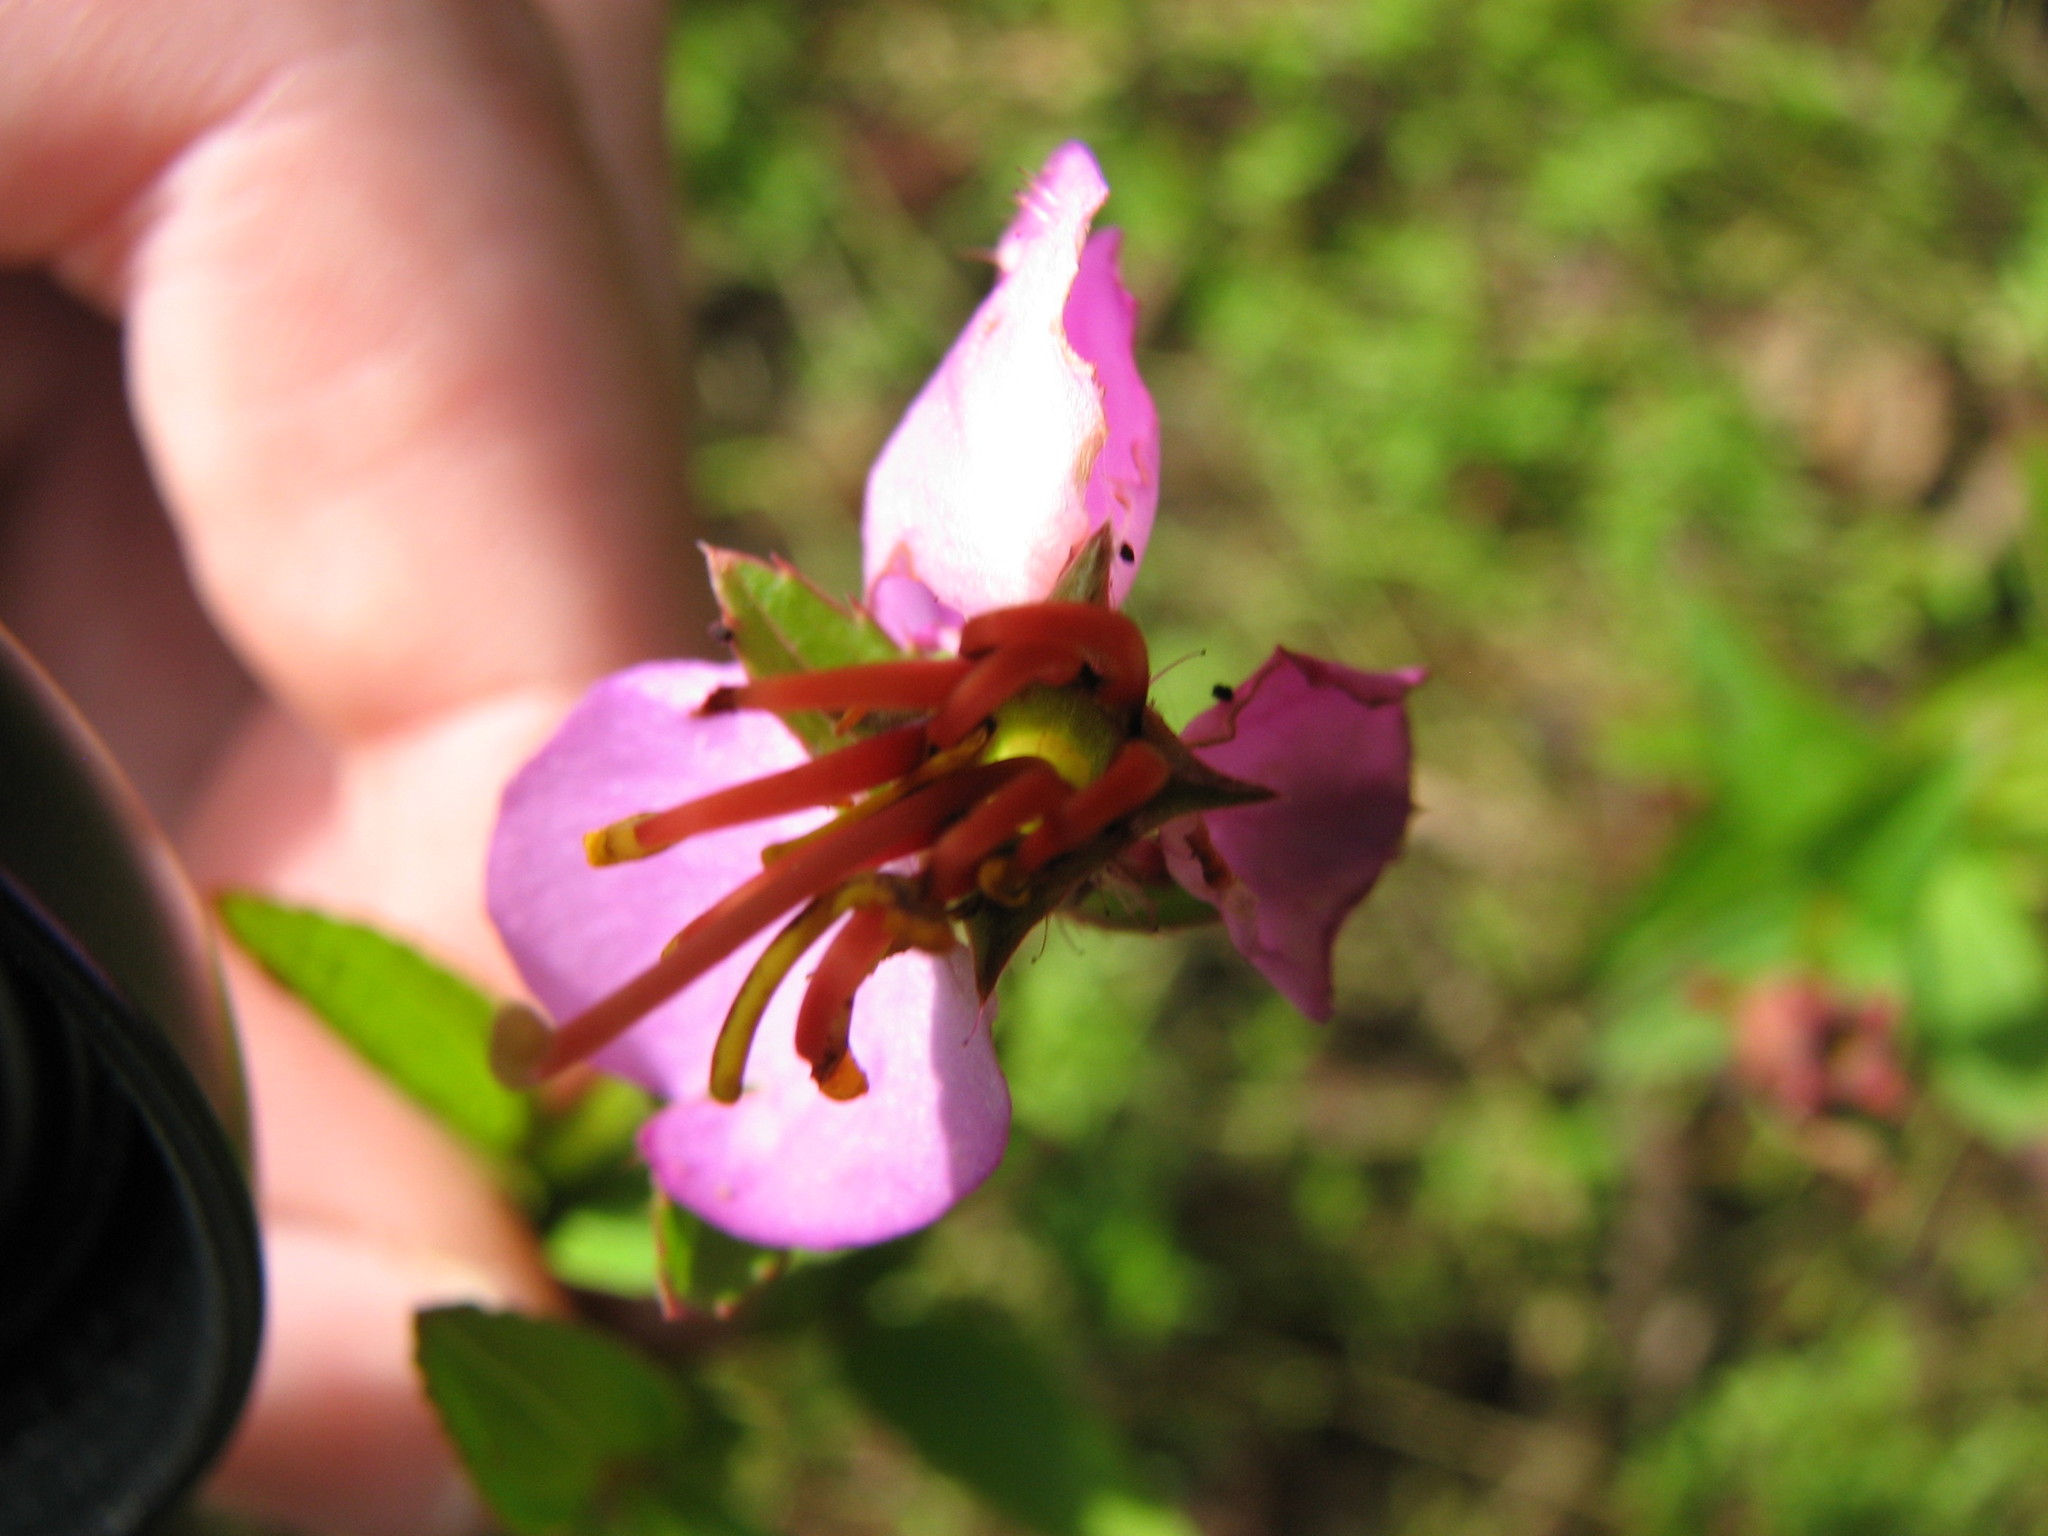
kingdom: Plantae
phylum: Tracheophyta
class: Magnoliopsida
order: Myrtales
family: Melastomataceae
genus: Rhexia
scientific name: Rhexia virginica
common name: Common meadow beauty
